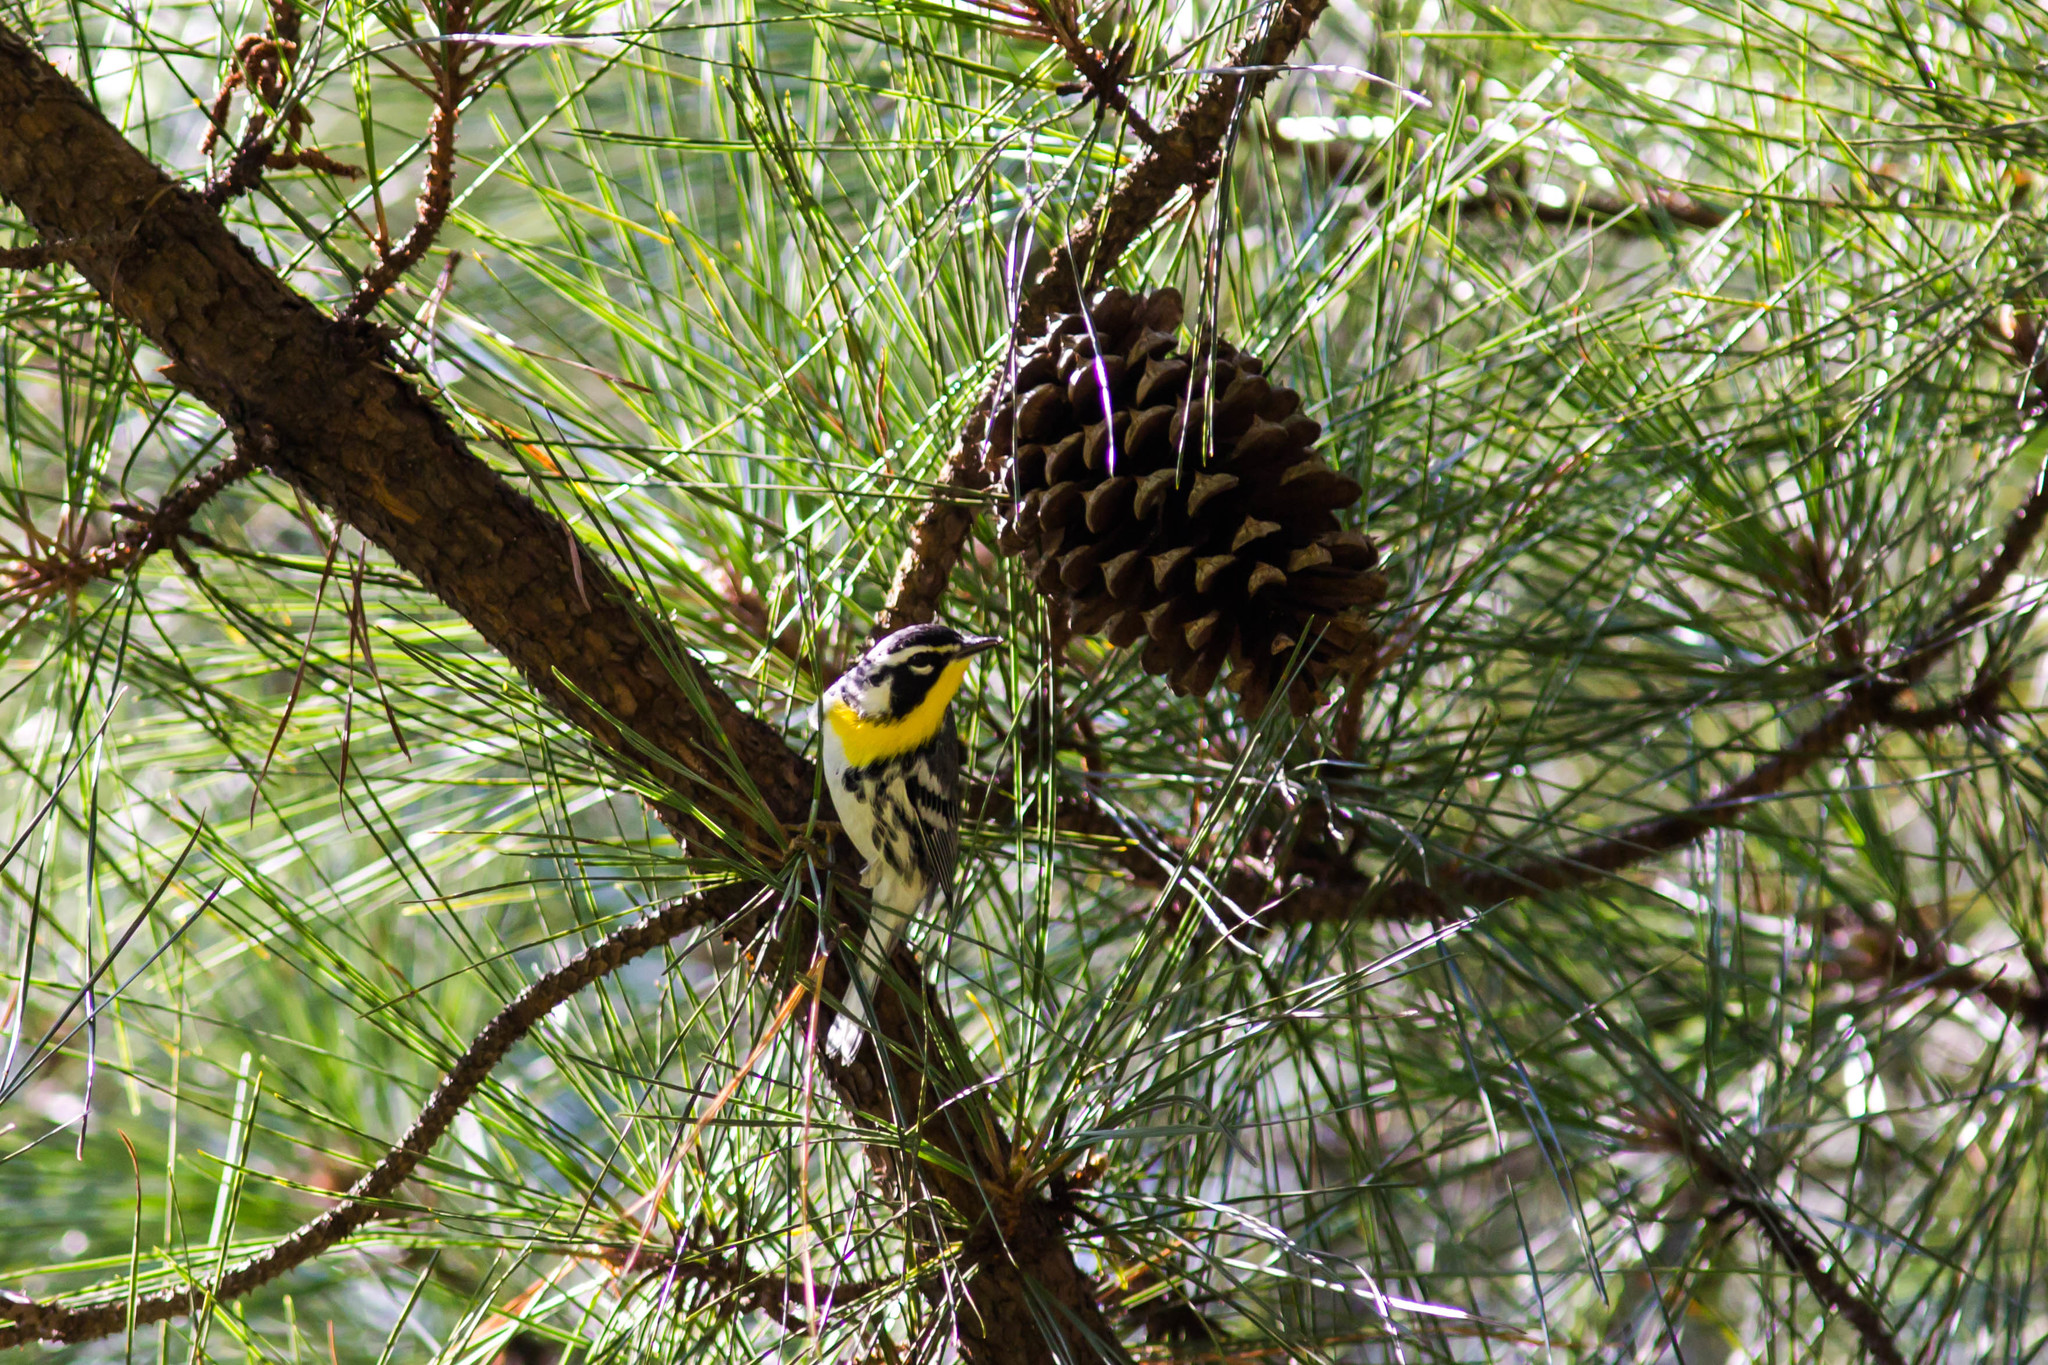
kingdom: Animalia
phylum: Chordata
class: Aves
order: Passeriformes
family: Parulidae
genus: Setophaga
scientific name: Setophaga dominica
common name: Yellow-throated warbler
